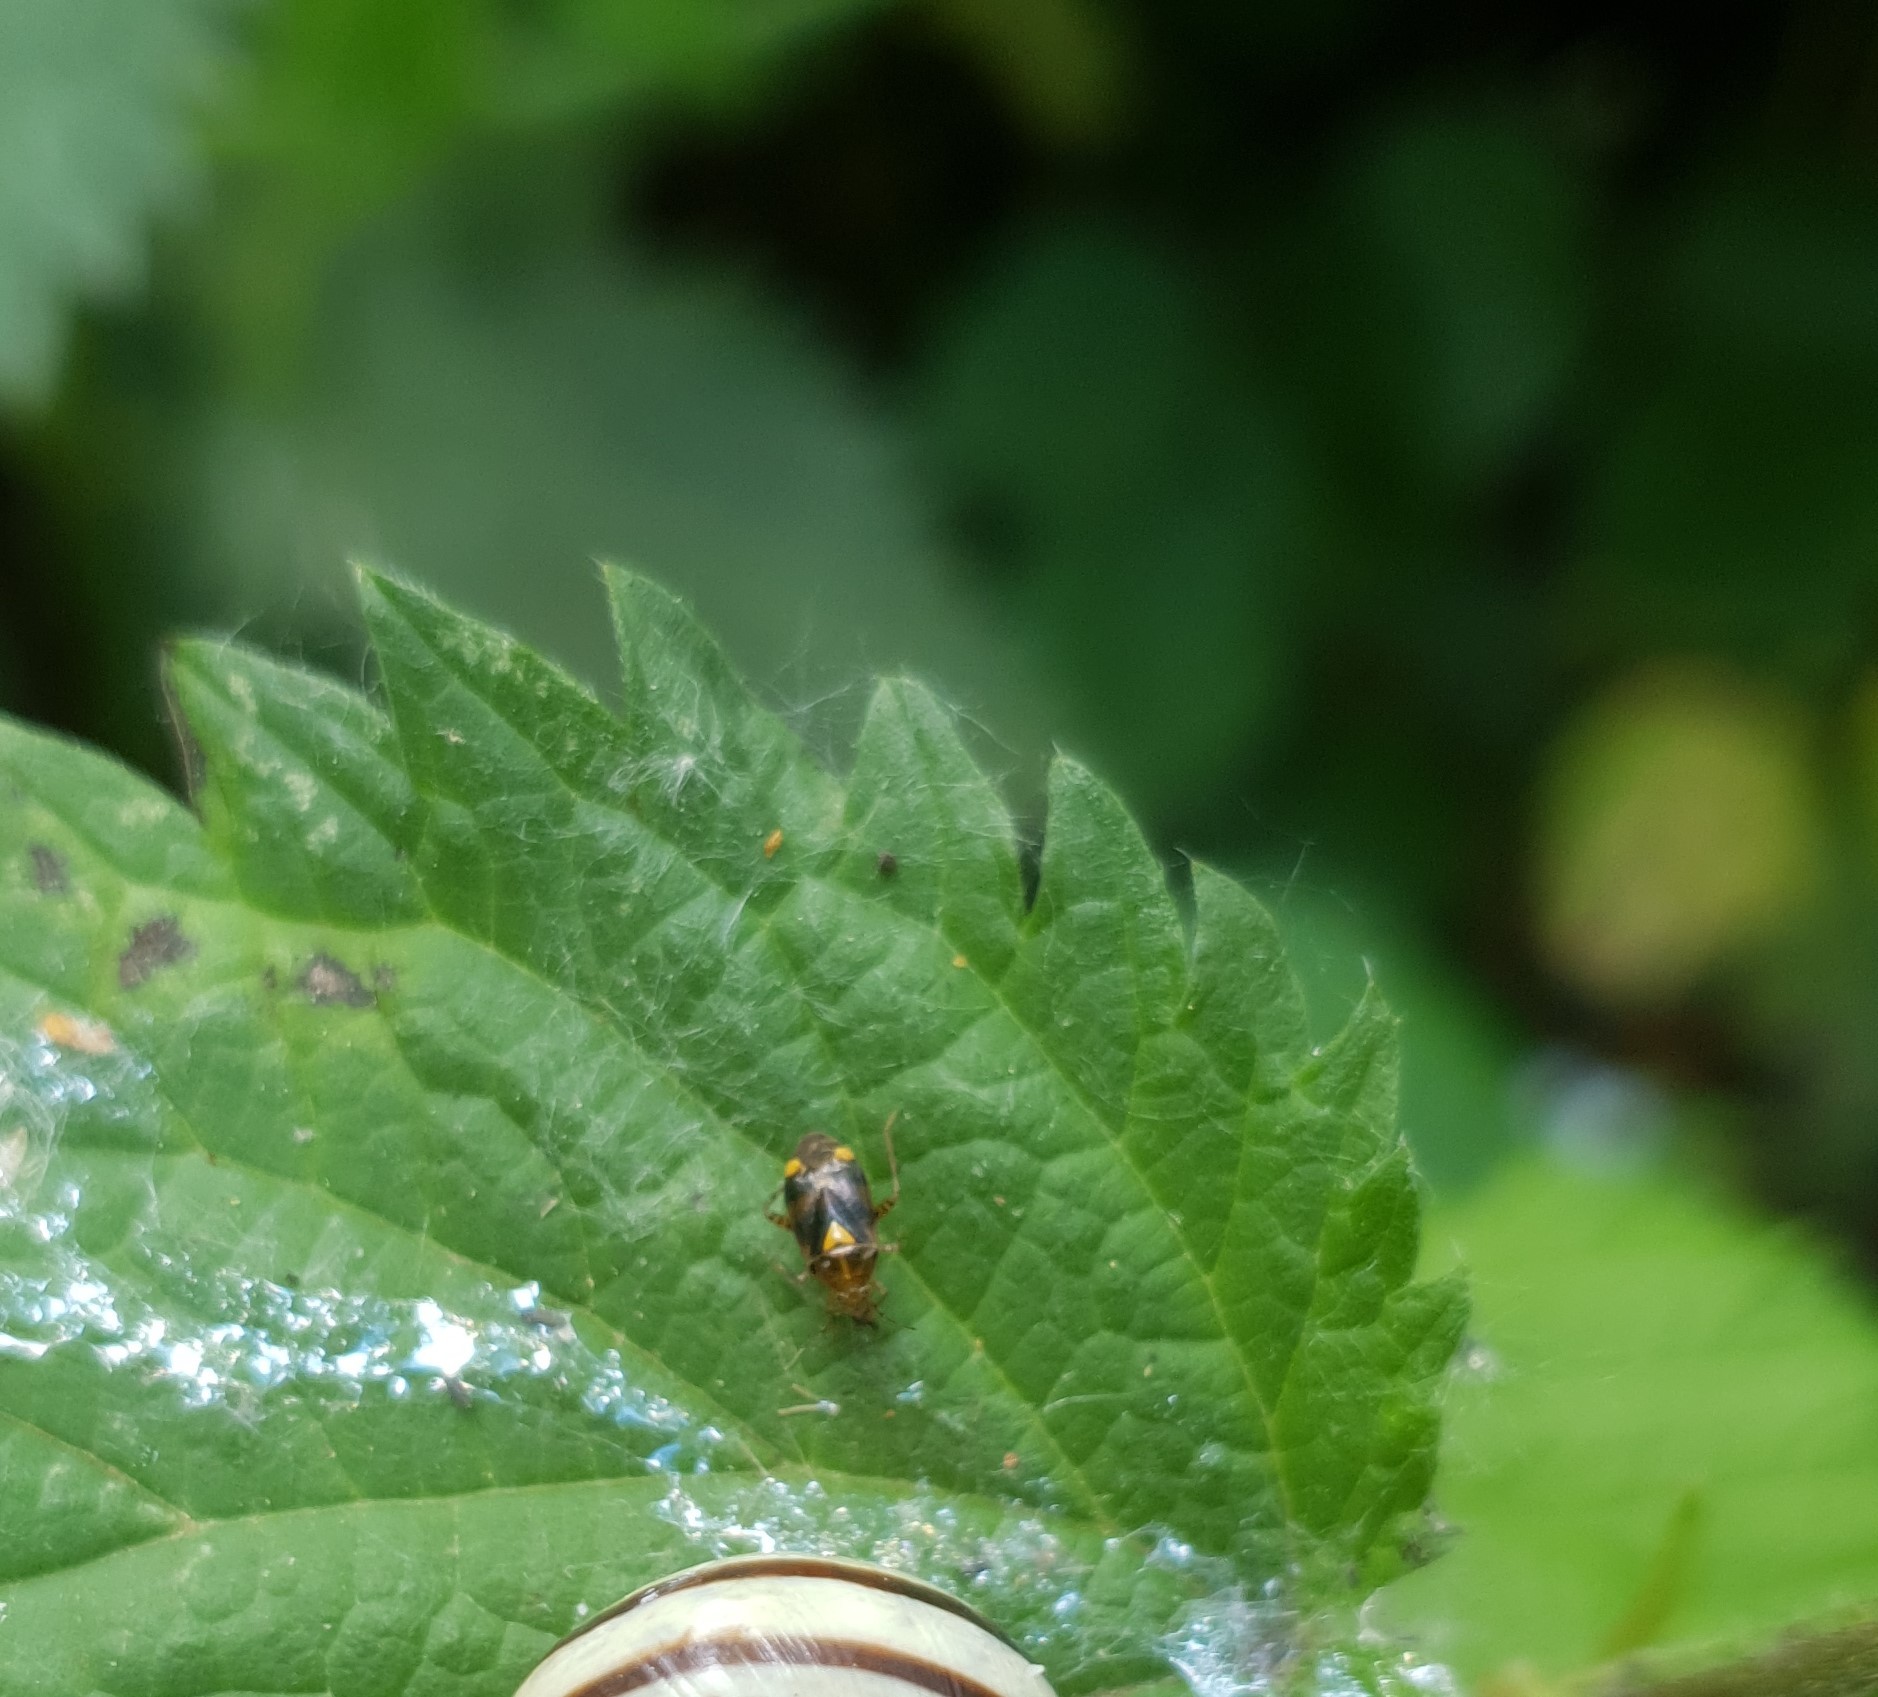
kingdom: Animalia
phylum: Arthropoda
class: Insecta
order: Hemiptera
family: Miridae
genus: Liocoris
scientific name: Liocoris tripustulatus
